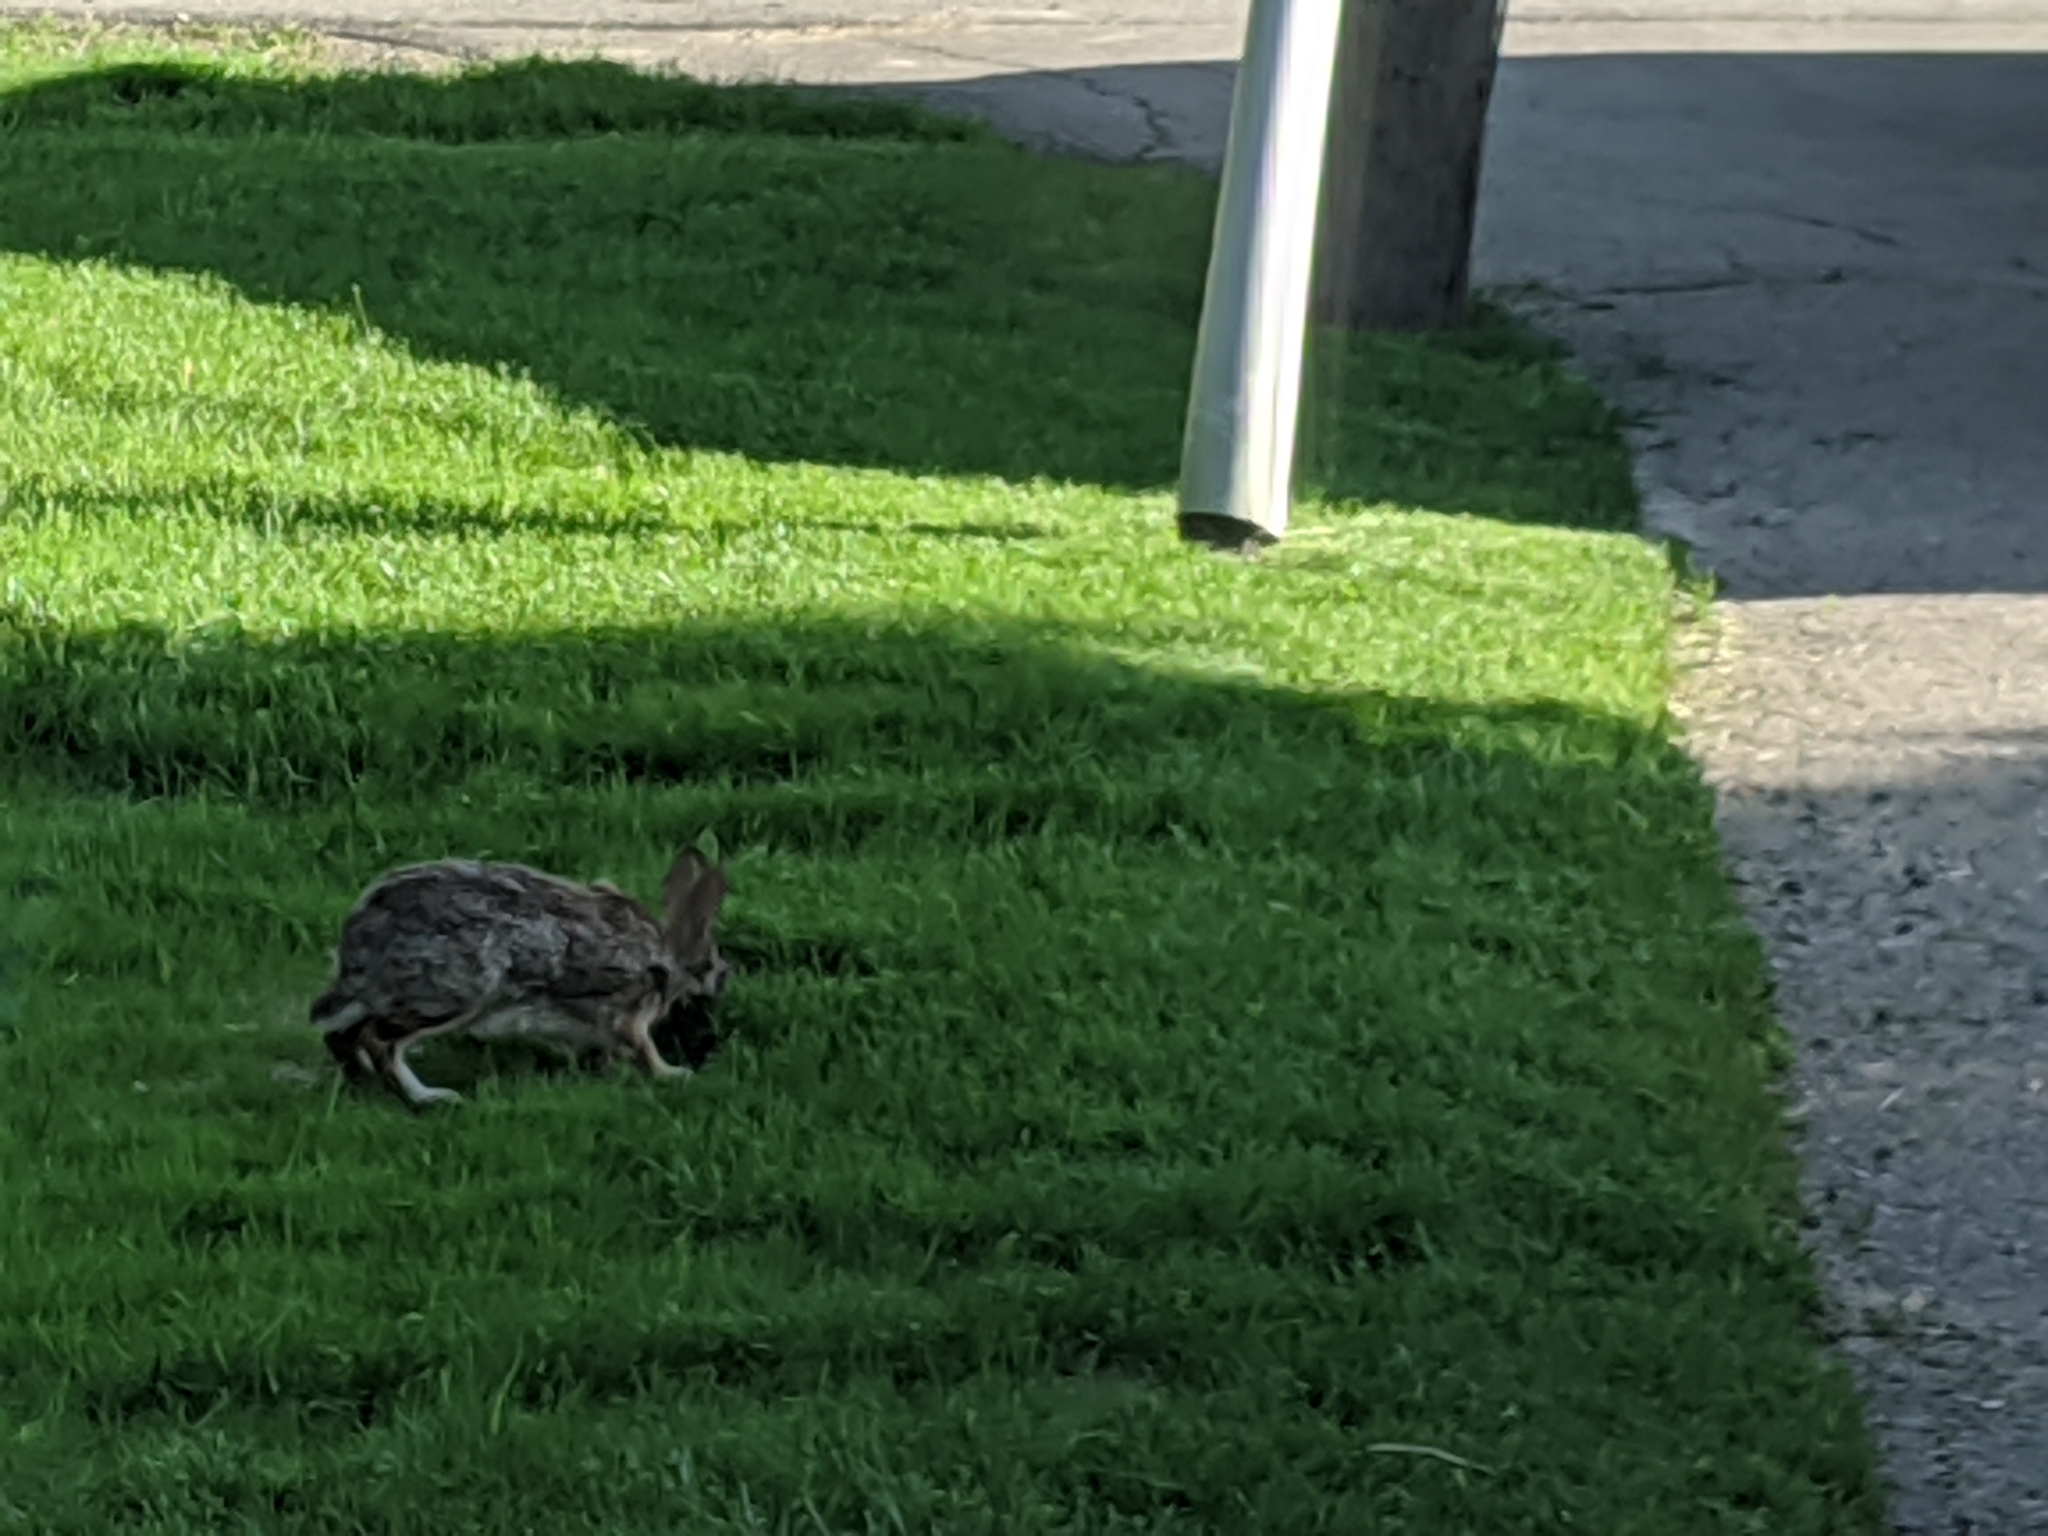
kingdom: Animalia
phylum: Chordata
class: Mammalia
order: Lagomorpha
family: Leporidae
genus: Sylvilagus
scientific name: Sylvilagus floridanus
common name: Eastern cottontail
